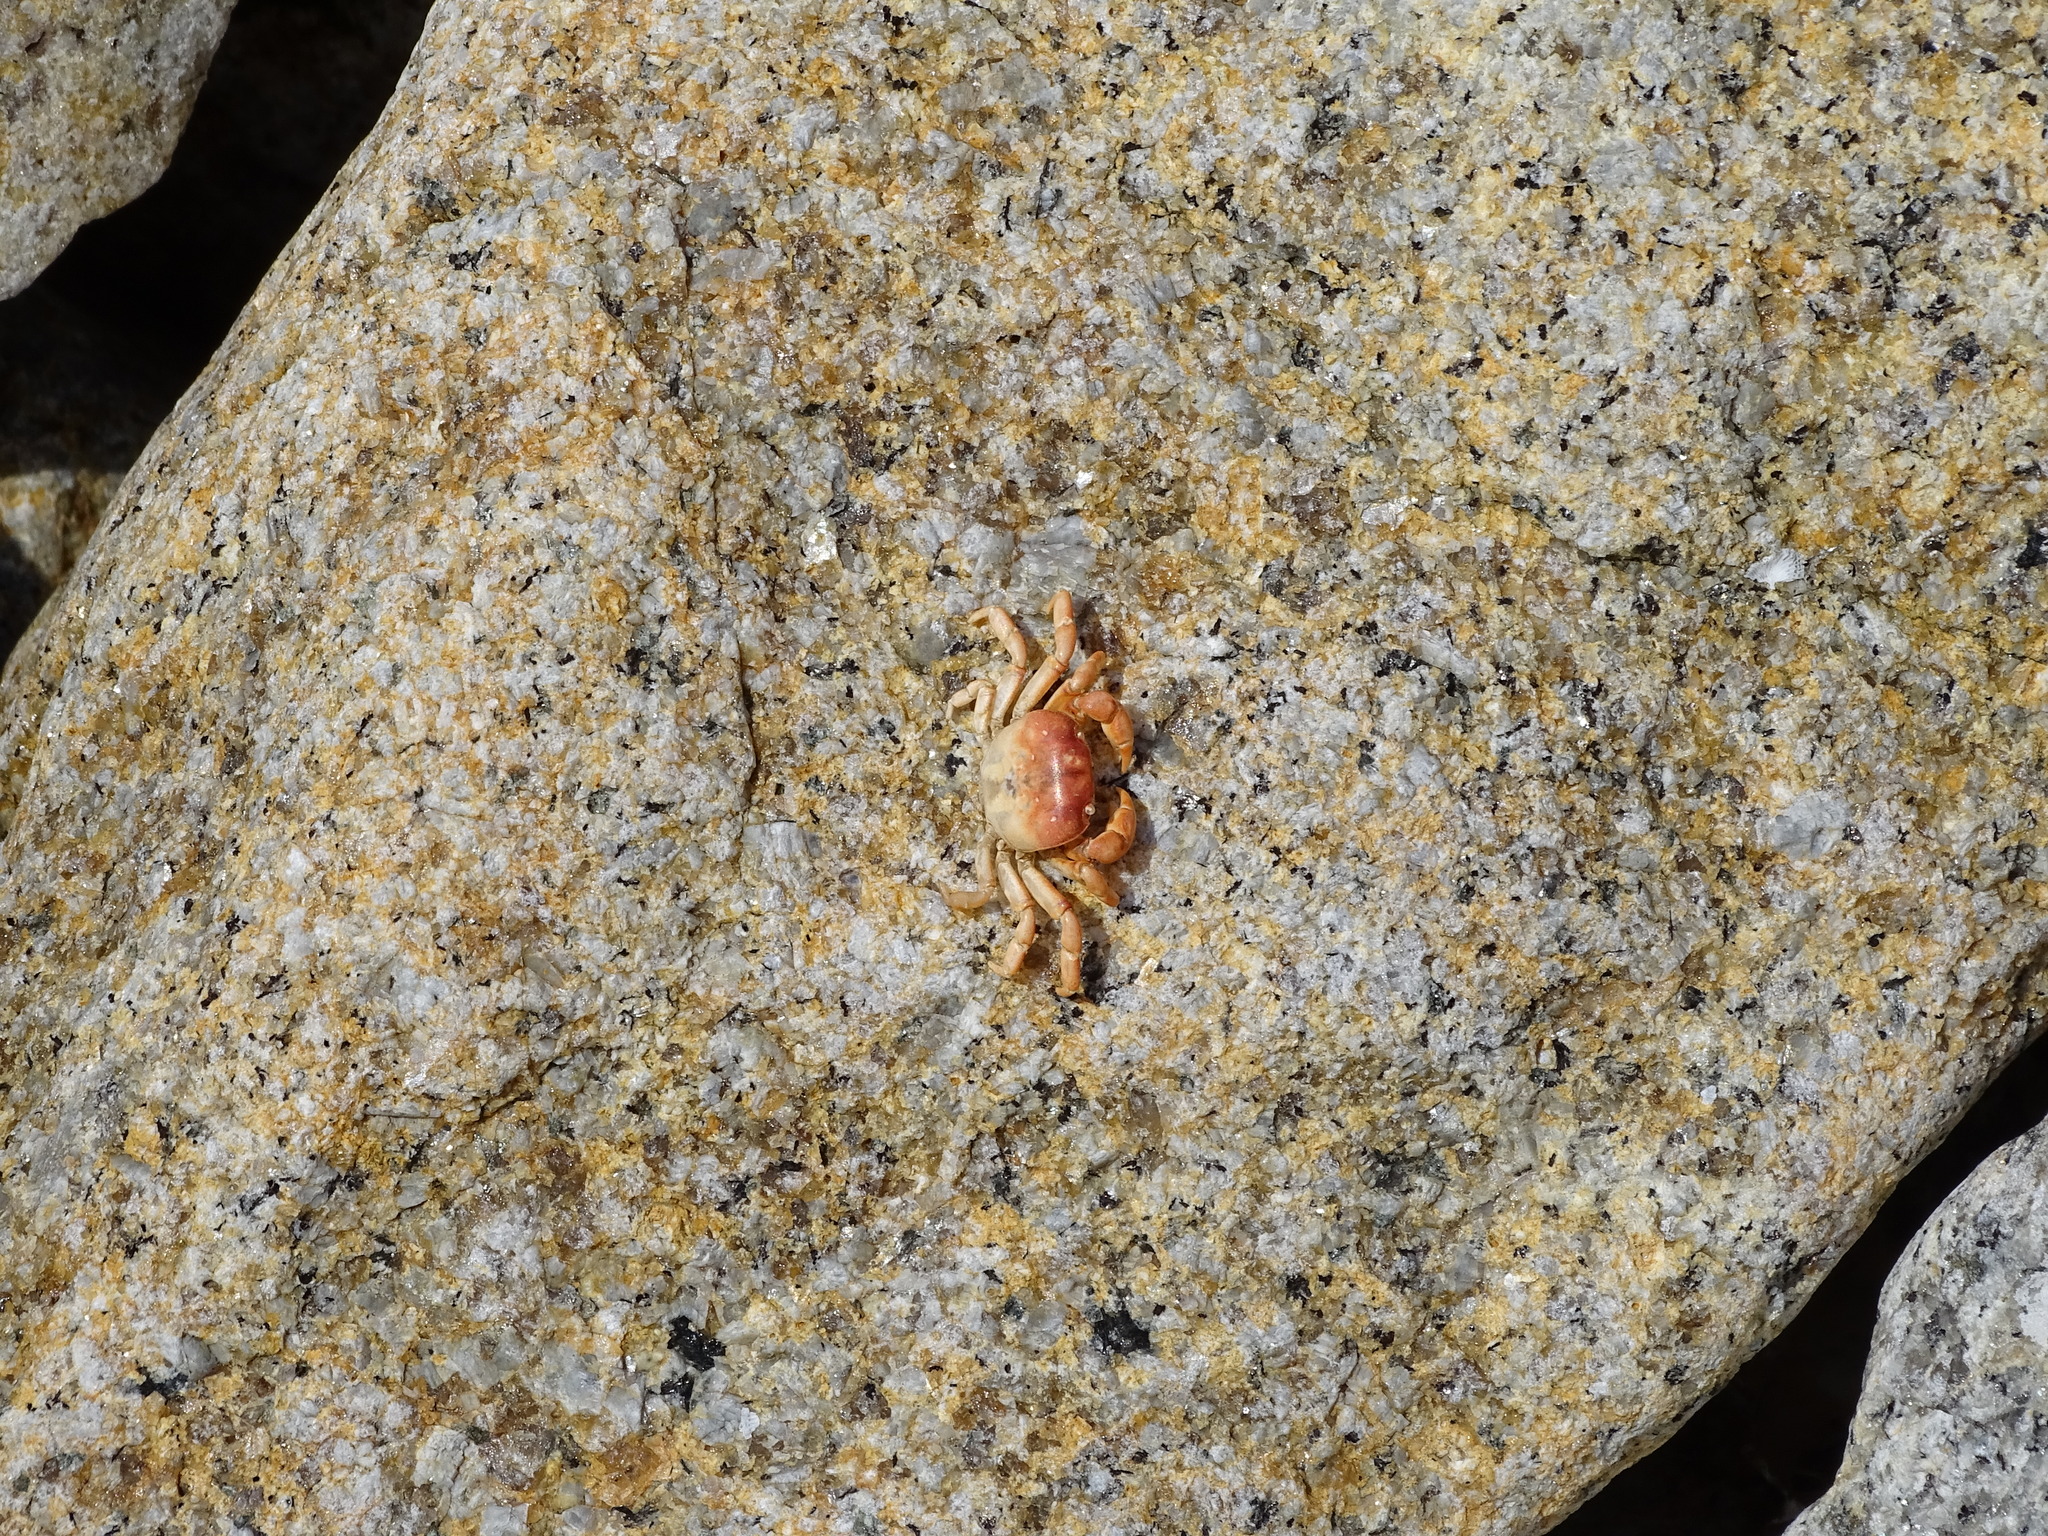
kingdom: Animalia
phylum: Arthropoda
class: Malacostraca
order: Decapoda
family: Varunidae
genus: Cyclograpsus
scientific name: Cyclograpsus cinereus
